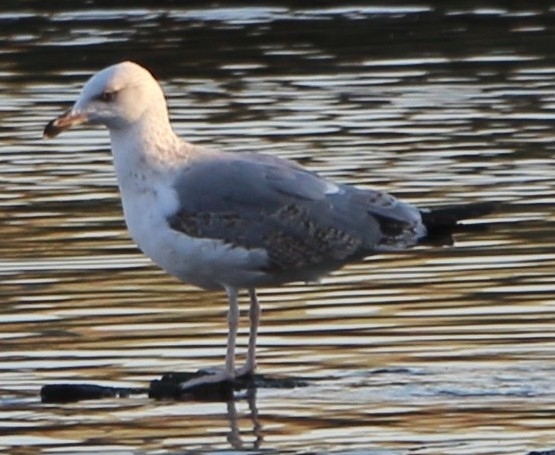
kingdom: Animalia
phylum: Chordata
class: Aves
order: Charadriiformes
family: Laridae
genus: Larus
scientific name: Larus michahellis
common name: Yellow-legged gull
